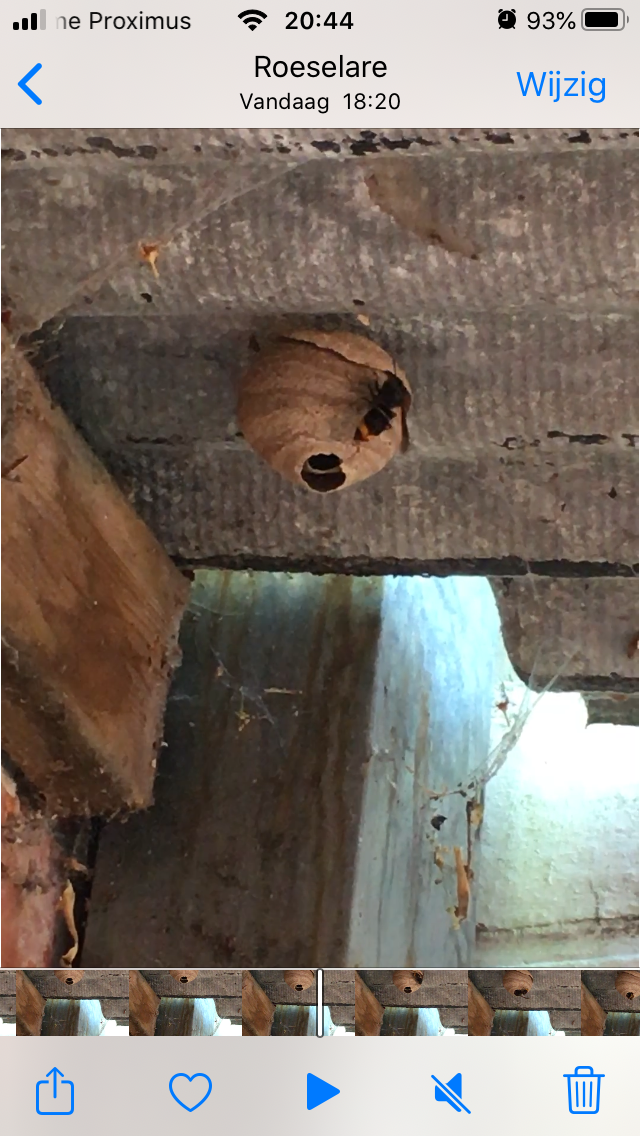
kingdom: Animalia
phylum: Arthropoda
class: Insecta
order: Hymenoptera
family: Vespidae
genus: Vespa
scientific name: Vespa velutina
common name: Asian hornet
